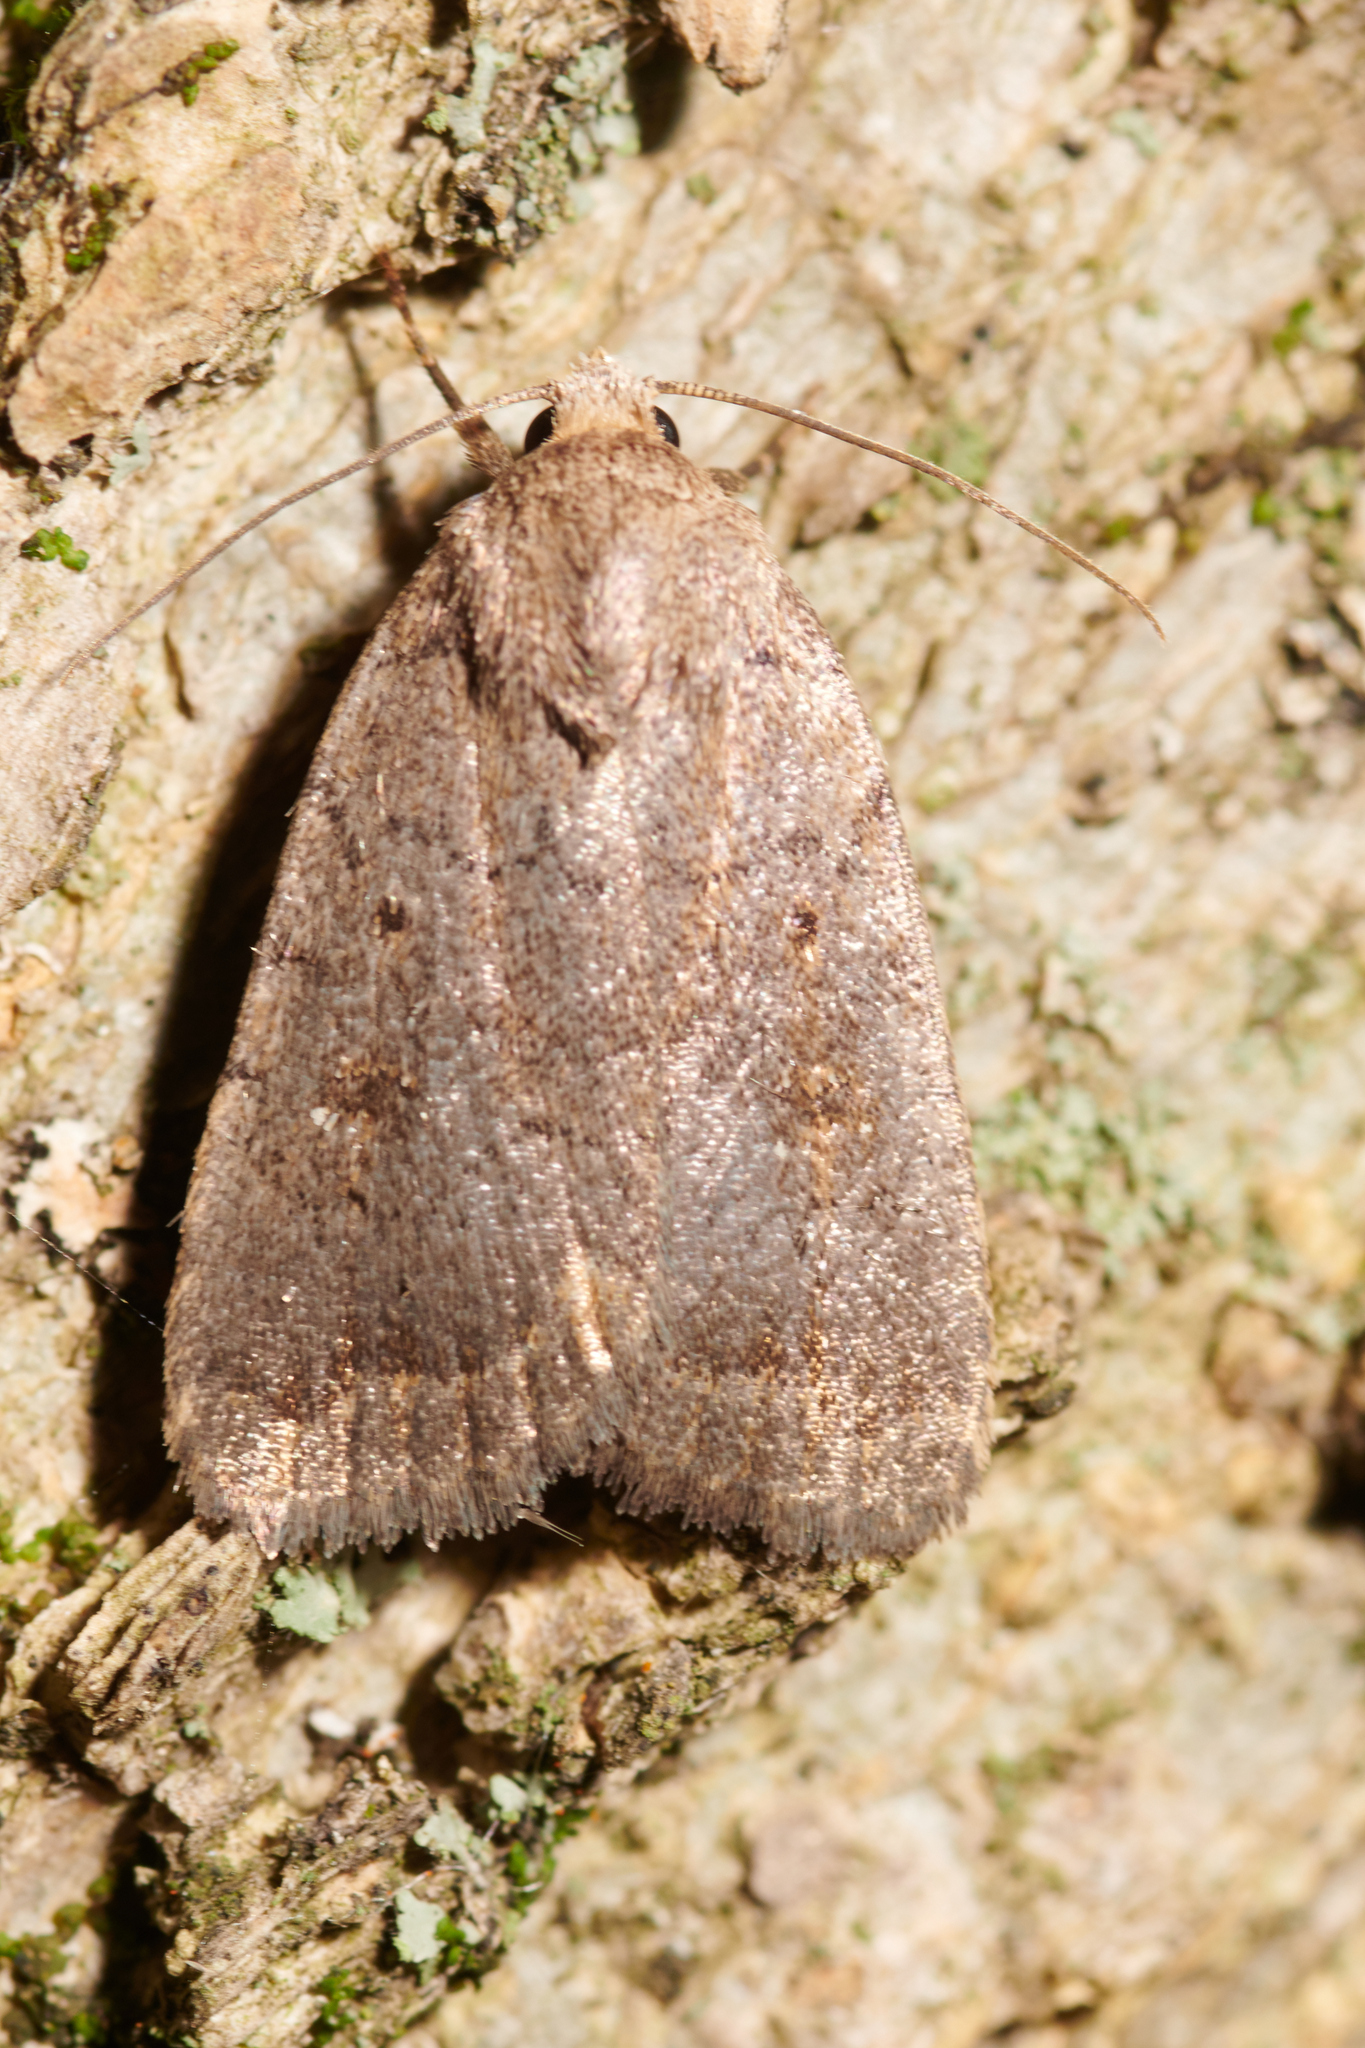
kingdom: Animalia
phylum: Arthropoda
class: Insecta
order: Lepidoptera
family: Noctuidae
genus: Athetis
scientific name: Athetis tarda
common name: Slowpoke moth
